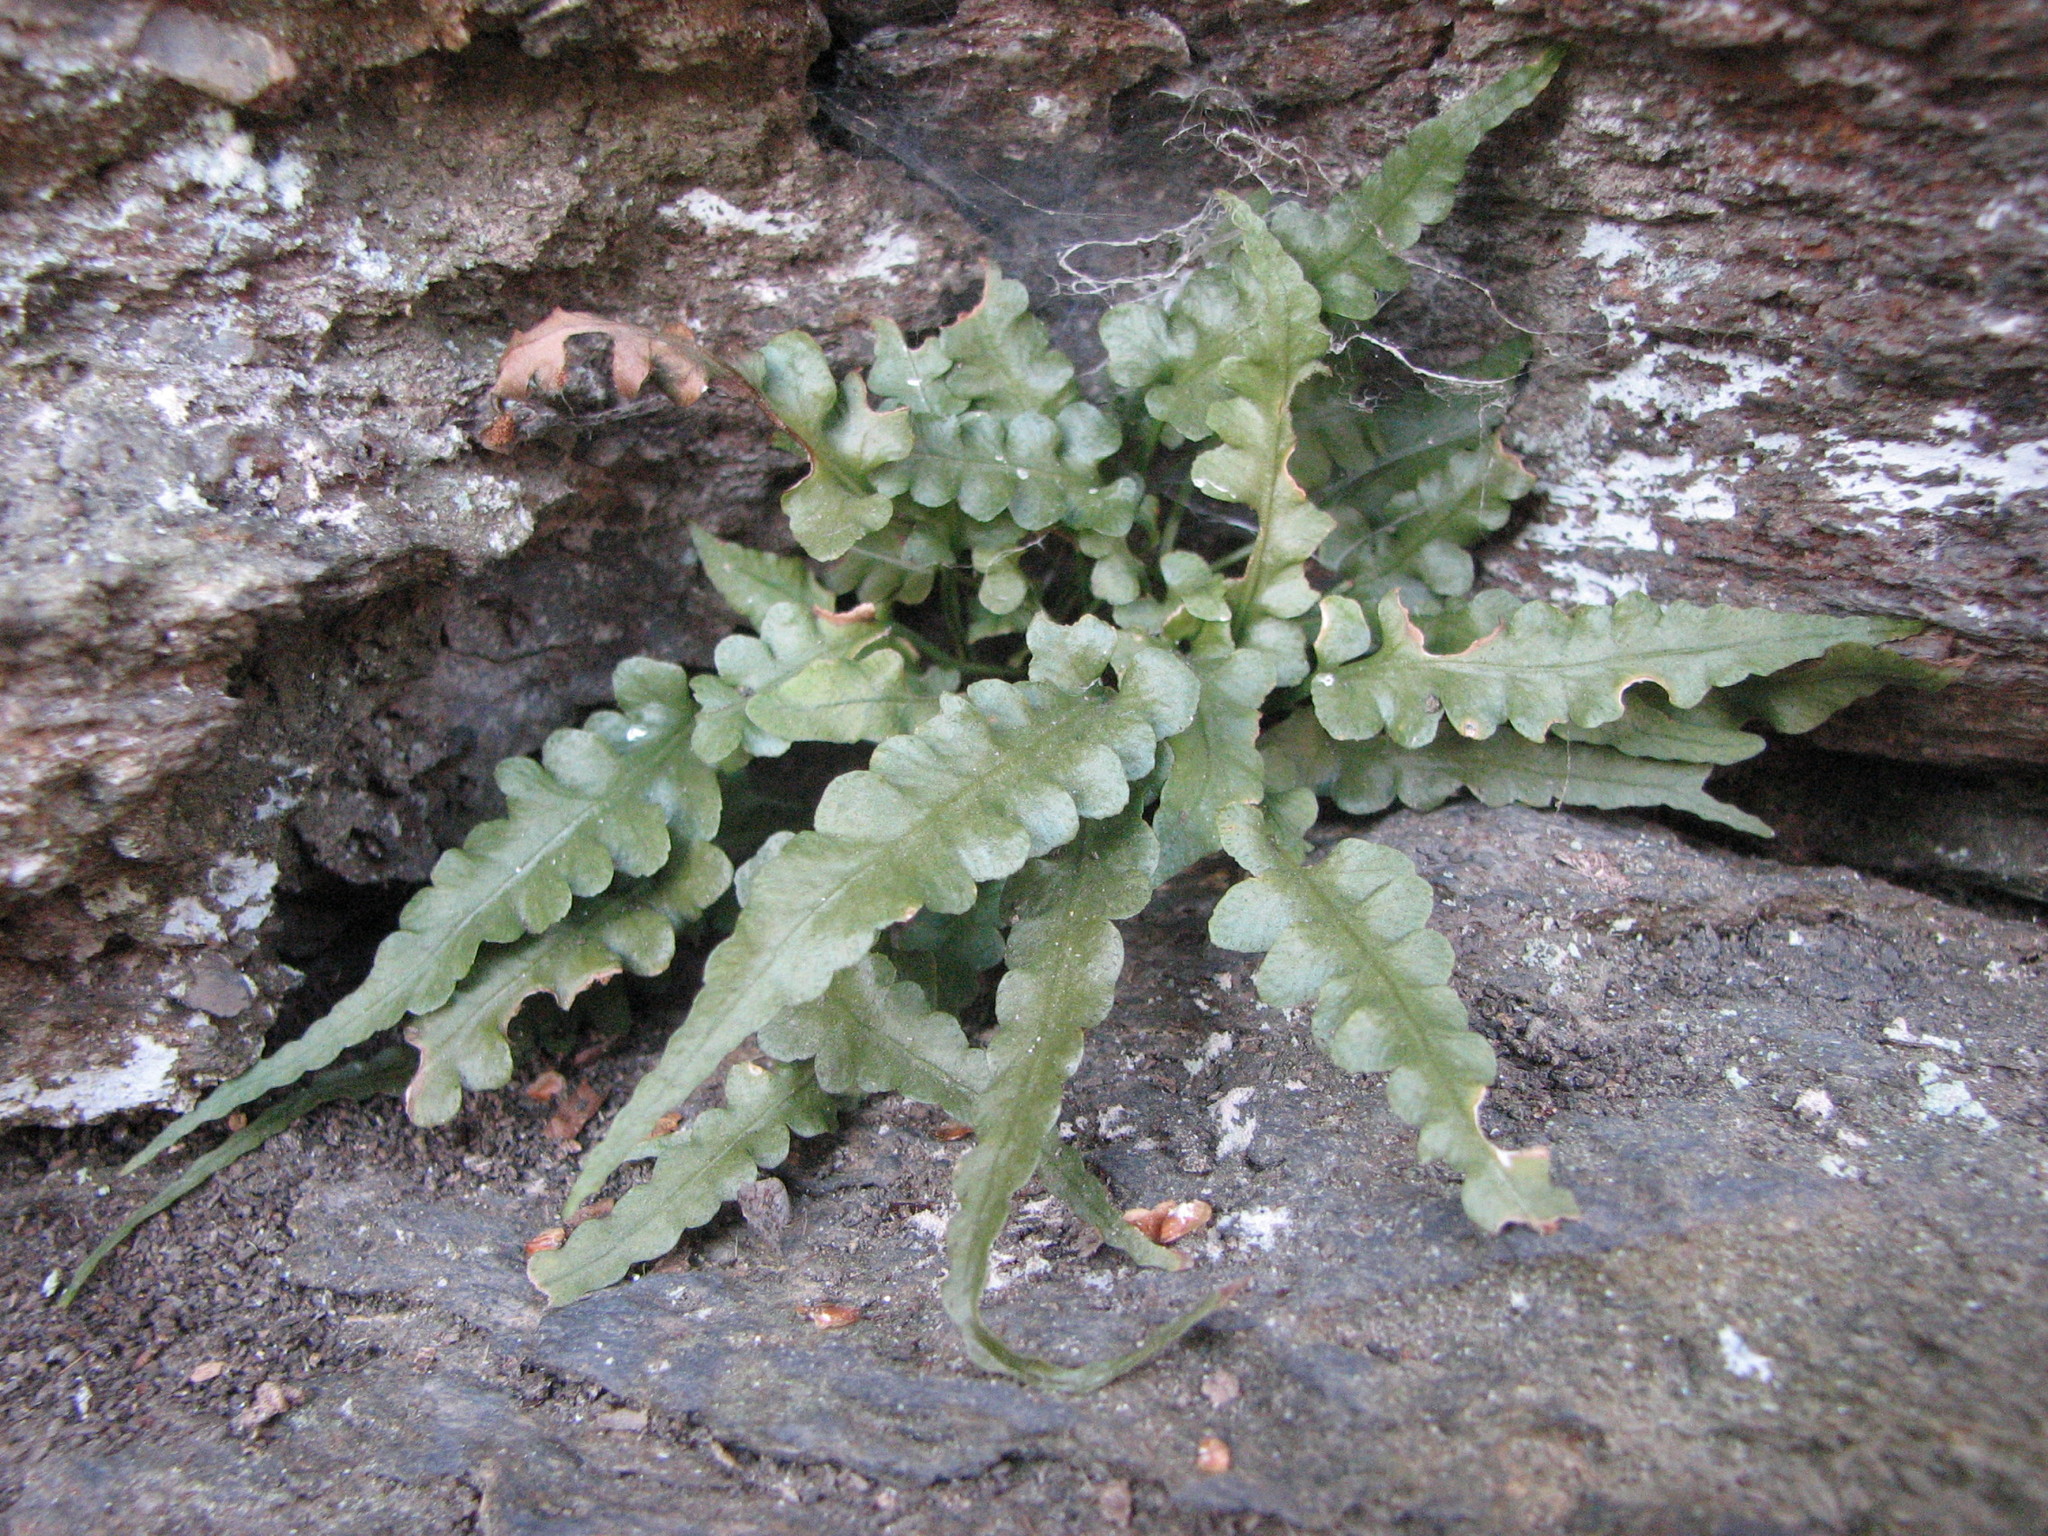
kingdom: Plantae
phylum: Tracheophyta
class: Polypodiopsida
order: Polypodiales
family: Aspleniaceae
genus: Asplenium
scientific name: Asplenium pinnatifidum
